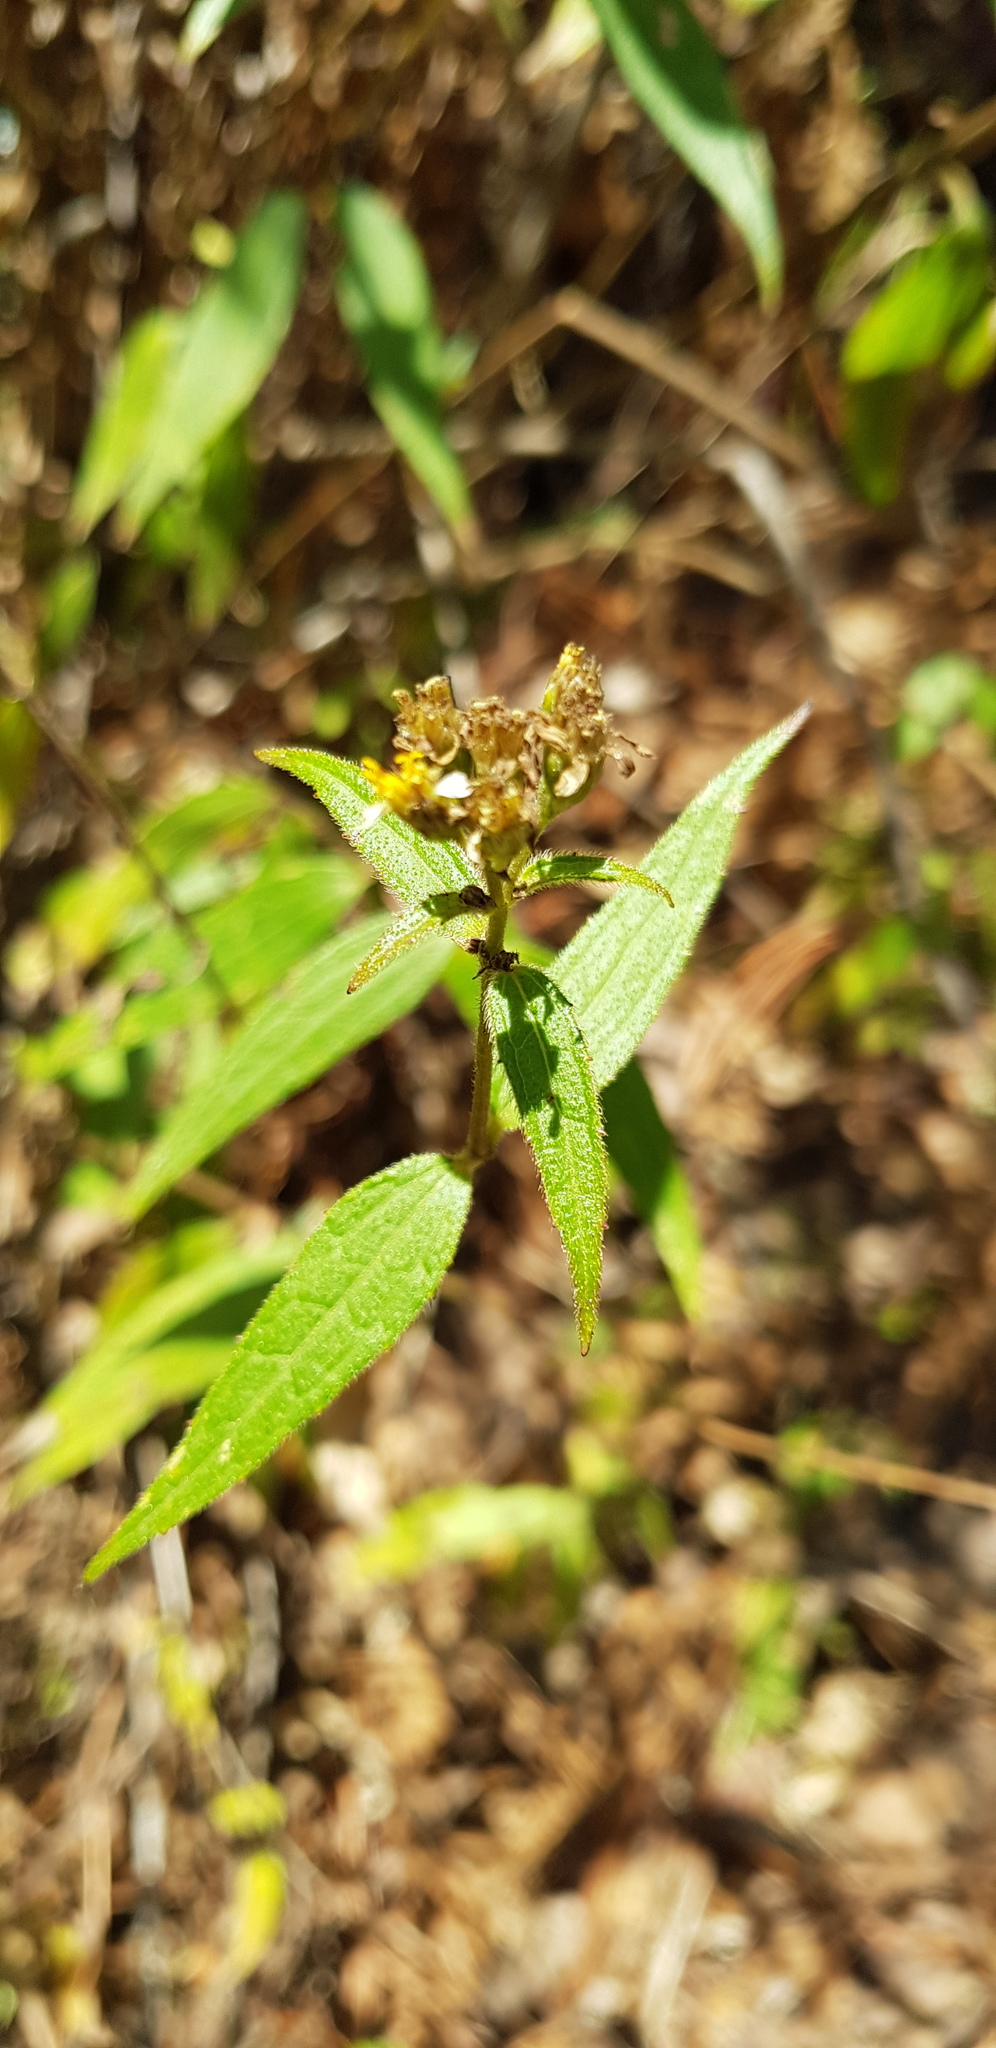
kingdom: Plantae
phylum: Tracheophyta
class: Magnoliopsida
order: Asterales
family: Asteraceae
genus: Alloispermum
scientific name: Alloispermum integrifolium
